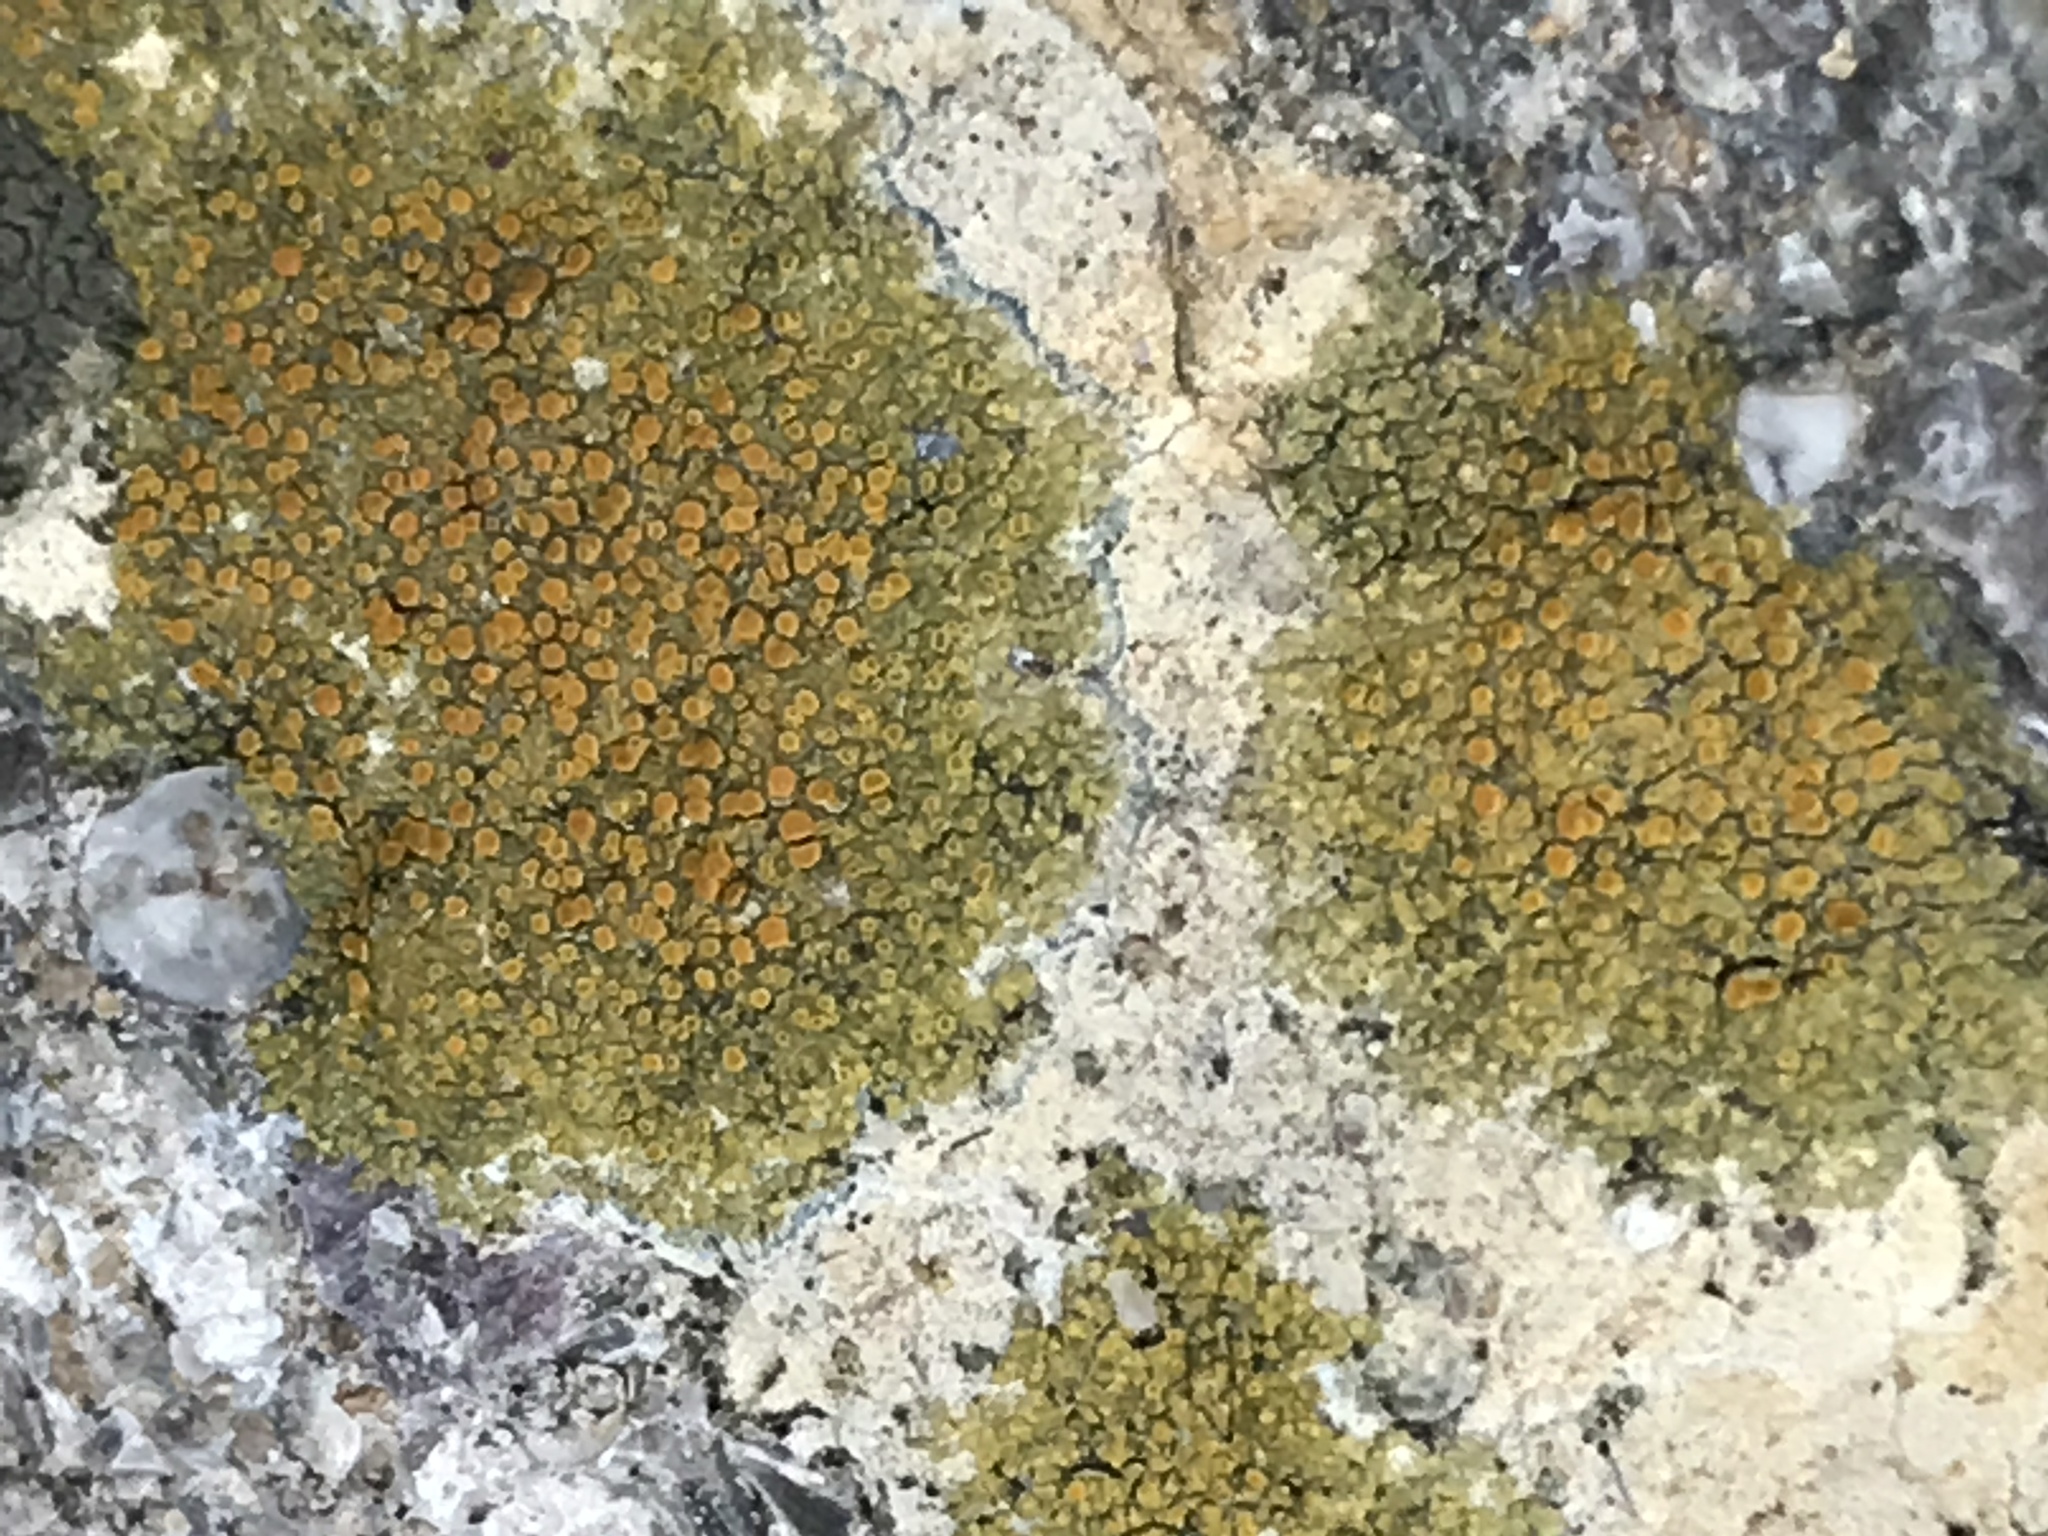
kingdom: Fungi
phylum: Ascomycota
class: Lecanoromycetes
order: Teloschistales
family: Teloschistaceae
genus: Squamulea
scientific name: Squamulea subsoluta
